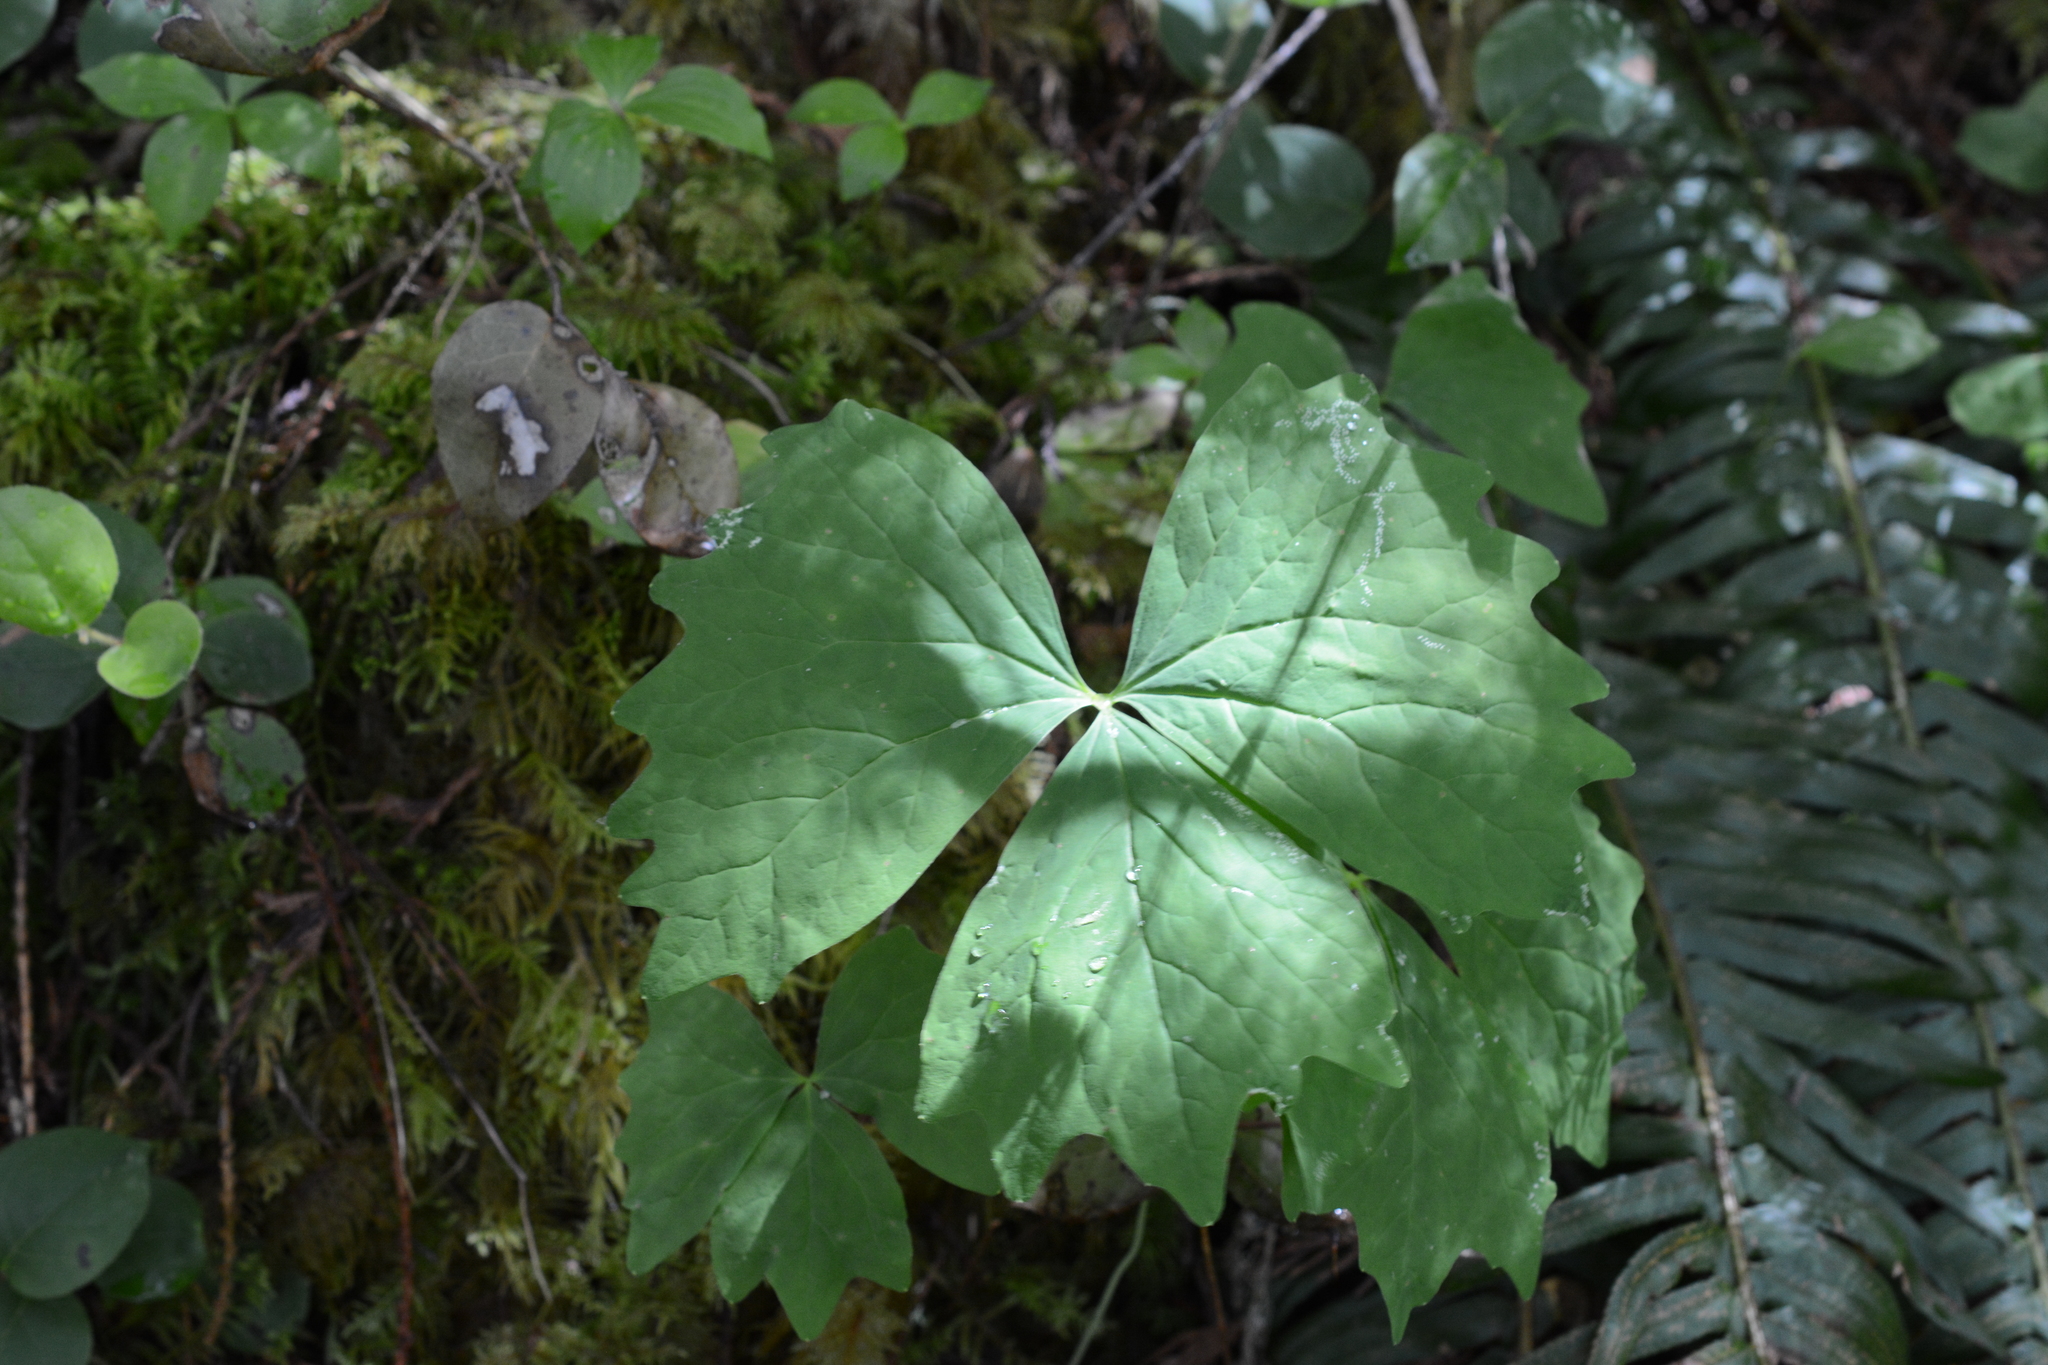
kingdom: Plantae
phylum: Tracheophyta
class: Magnoliopsida
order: Ranunculales
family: Berberidaceae
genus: Achlys
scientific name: Achlys triphylla
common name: Vanilla-leaf
